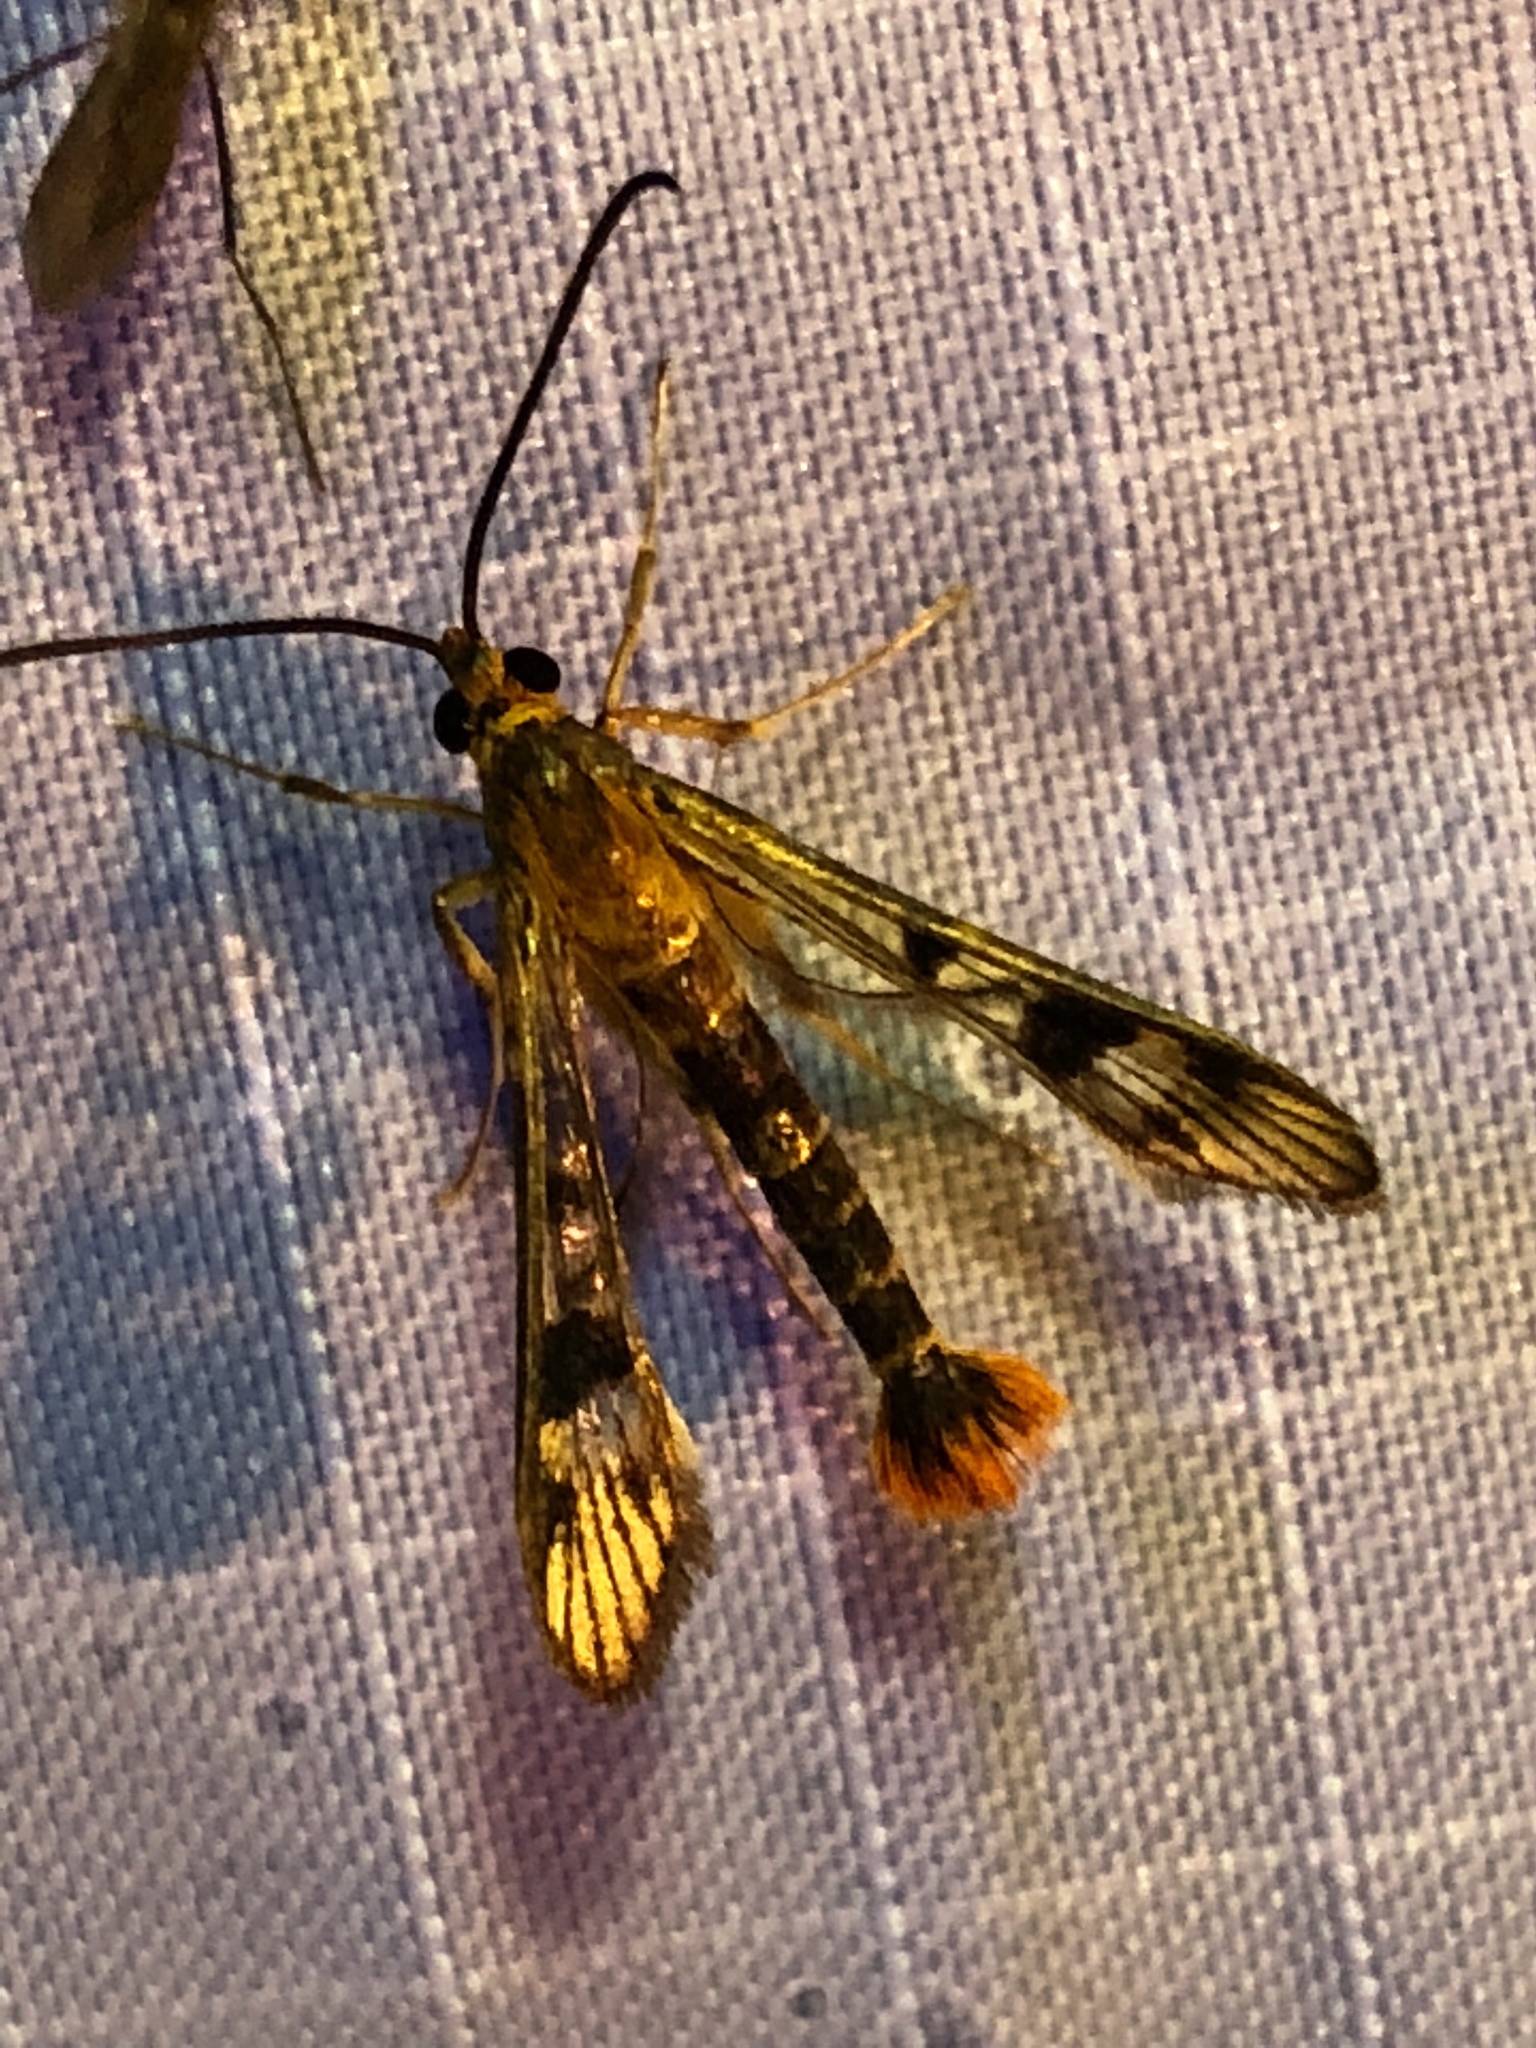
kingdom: Animalia
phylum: Arthropoda
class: Insecta
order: Lepidoptera
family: Sesiidae
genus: Synanthedon
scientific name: Synanthedon acerni
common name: Maple callus borer moth
